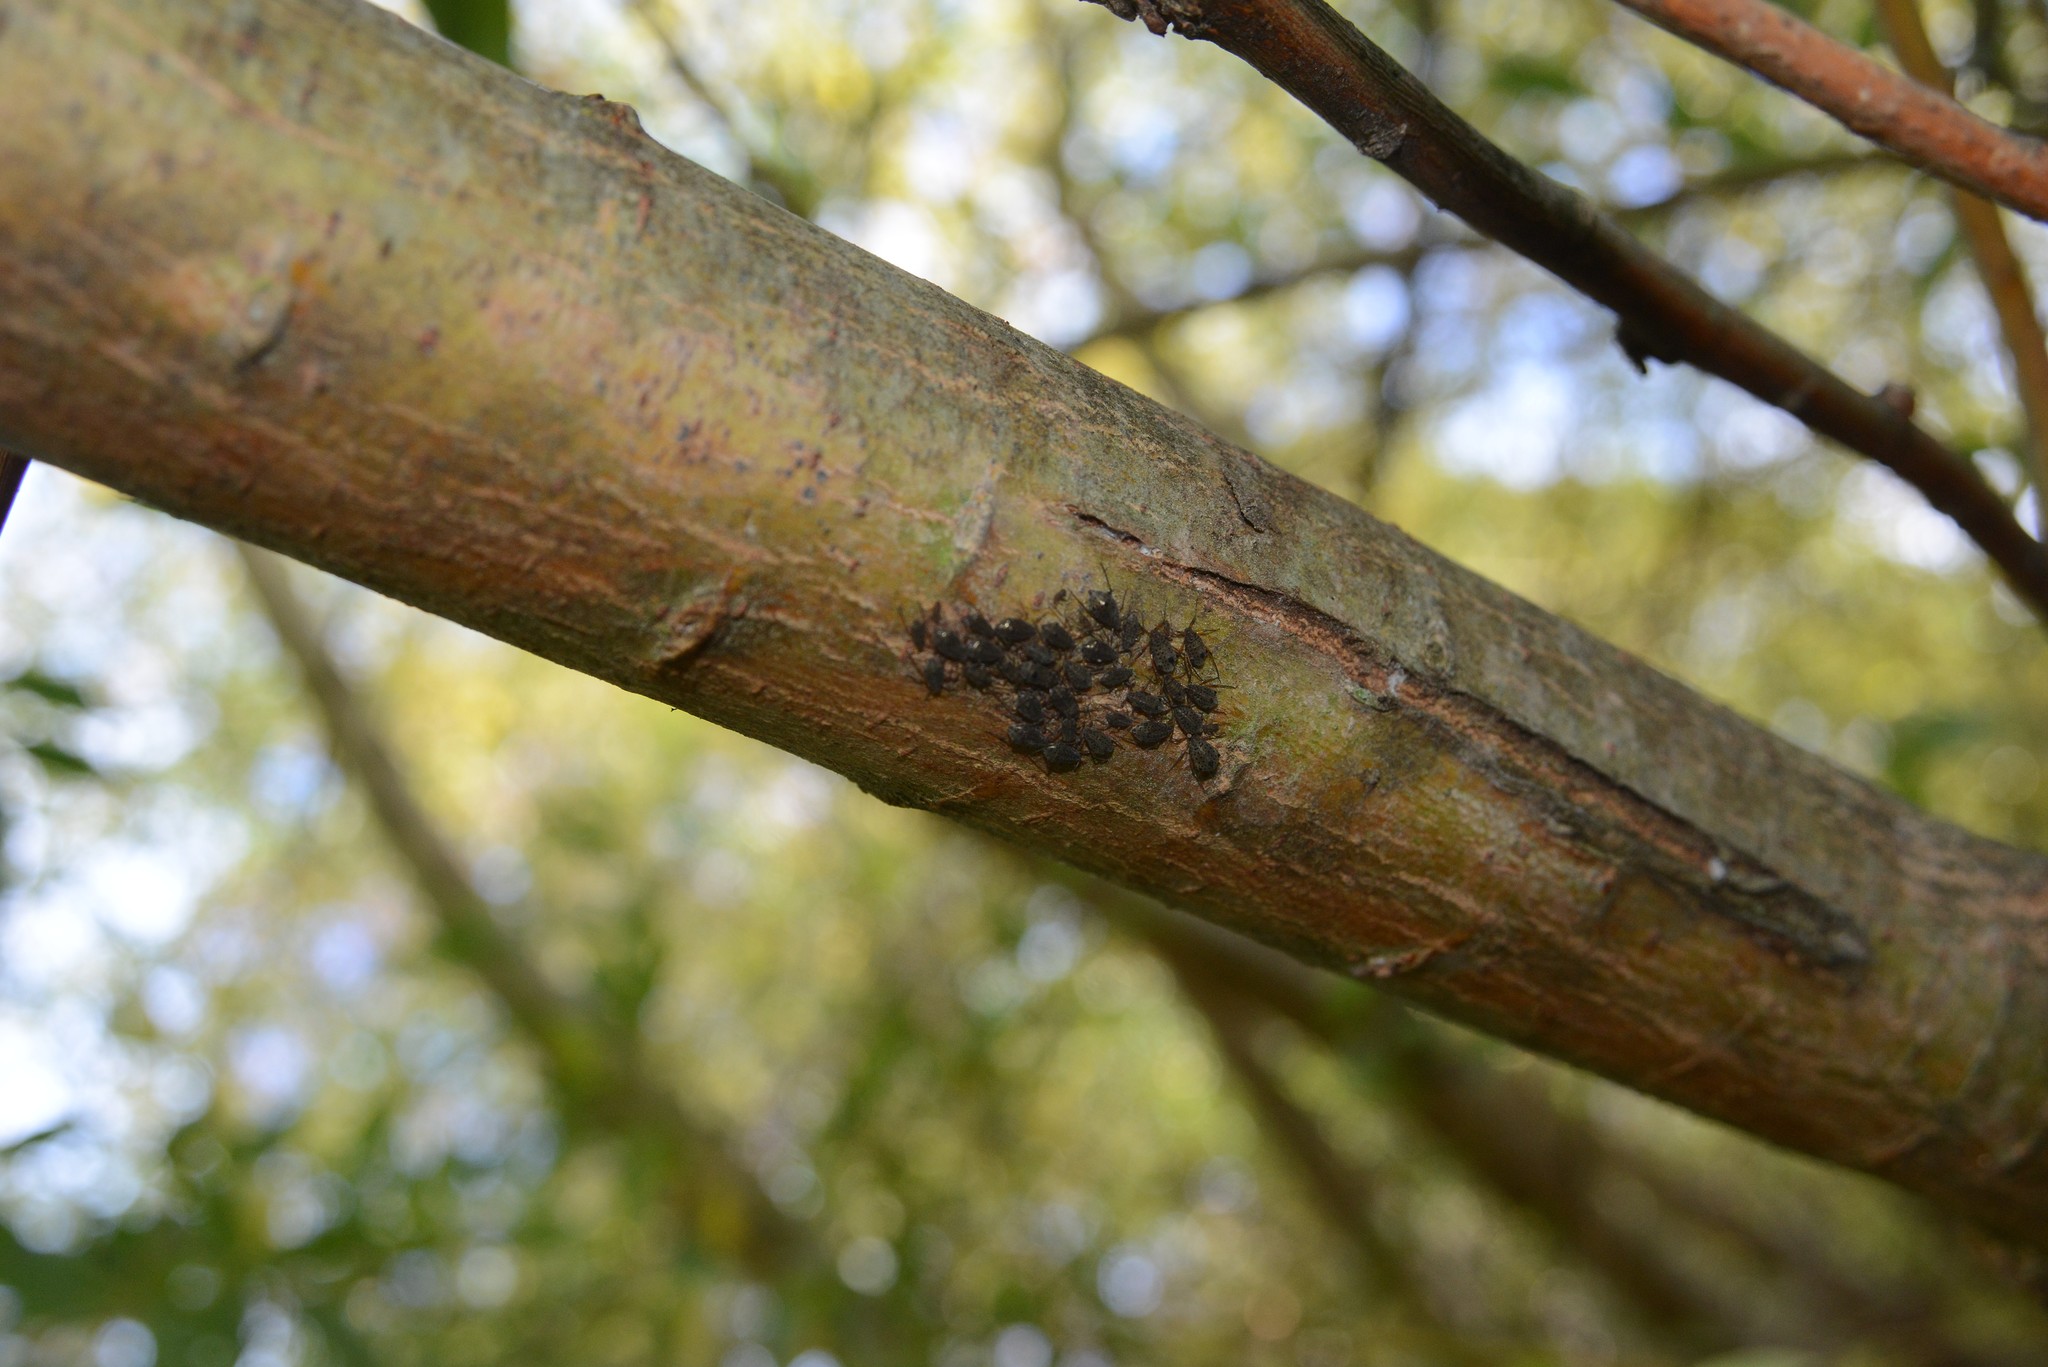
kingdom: Animalia
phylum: Arthropoda
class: Insecta
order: Hemiptera
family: Aphididae
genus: Tuberolachnus
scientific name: Tuberolachnus salignus
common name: Giant willow aphid
